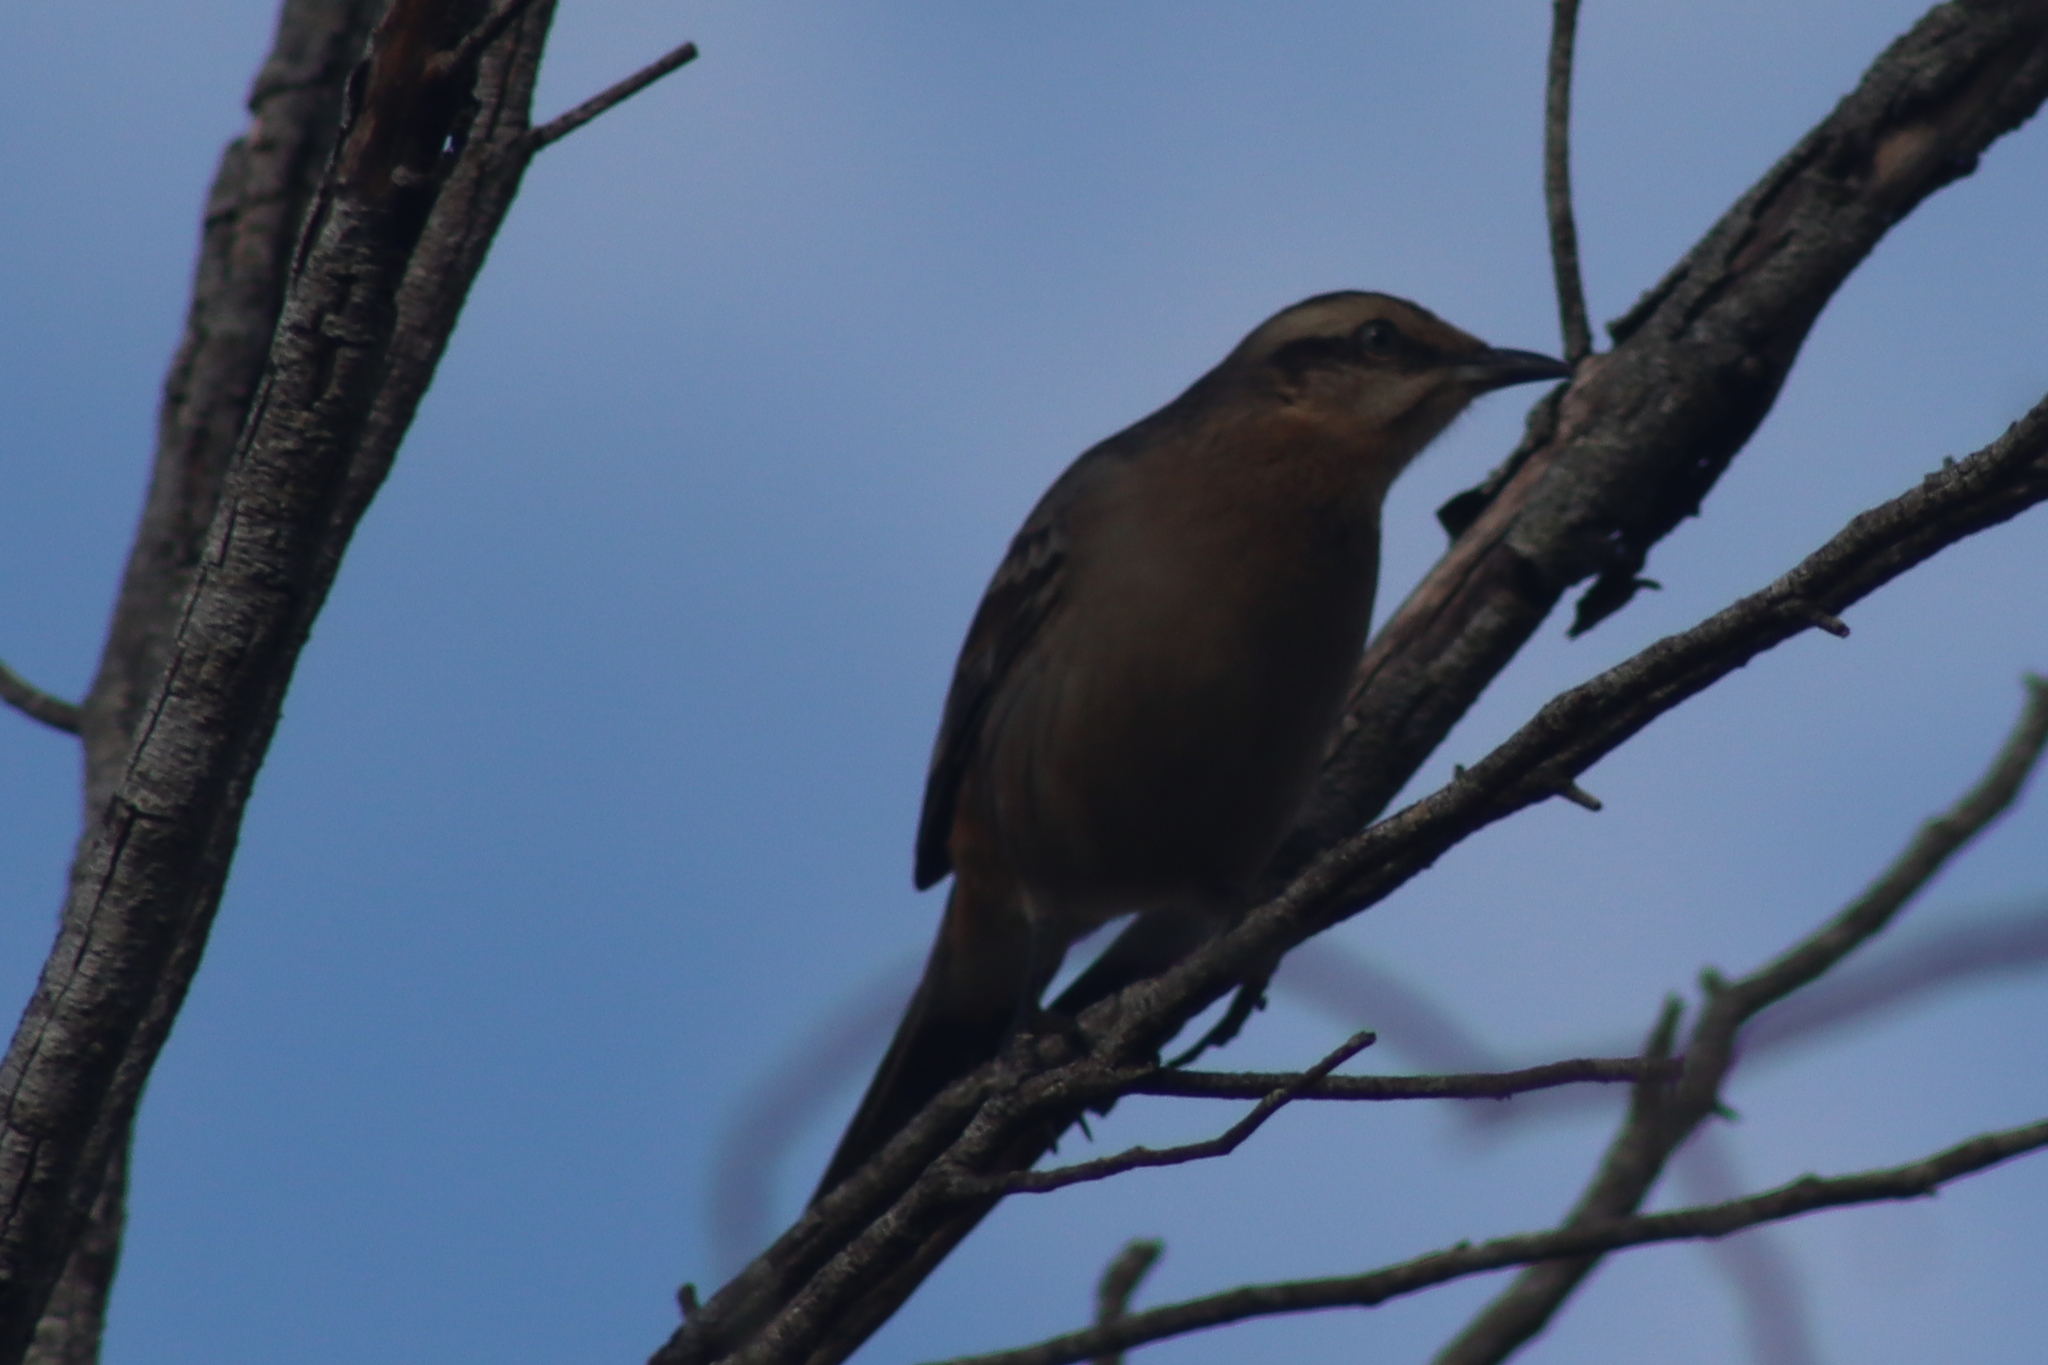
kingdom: Animalia
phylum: Chordata
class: Aves
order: Passeriformes
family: Mimidae
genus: Mimus
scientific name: Mimus saturninus
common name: Chalk-browed mockingbird
